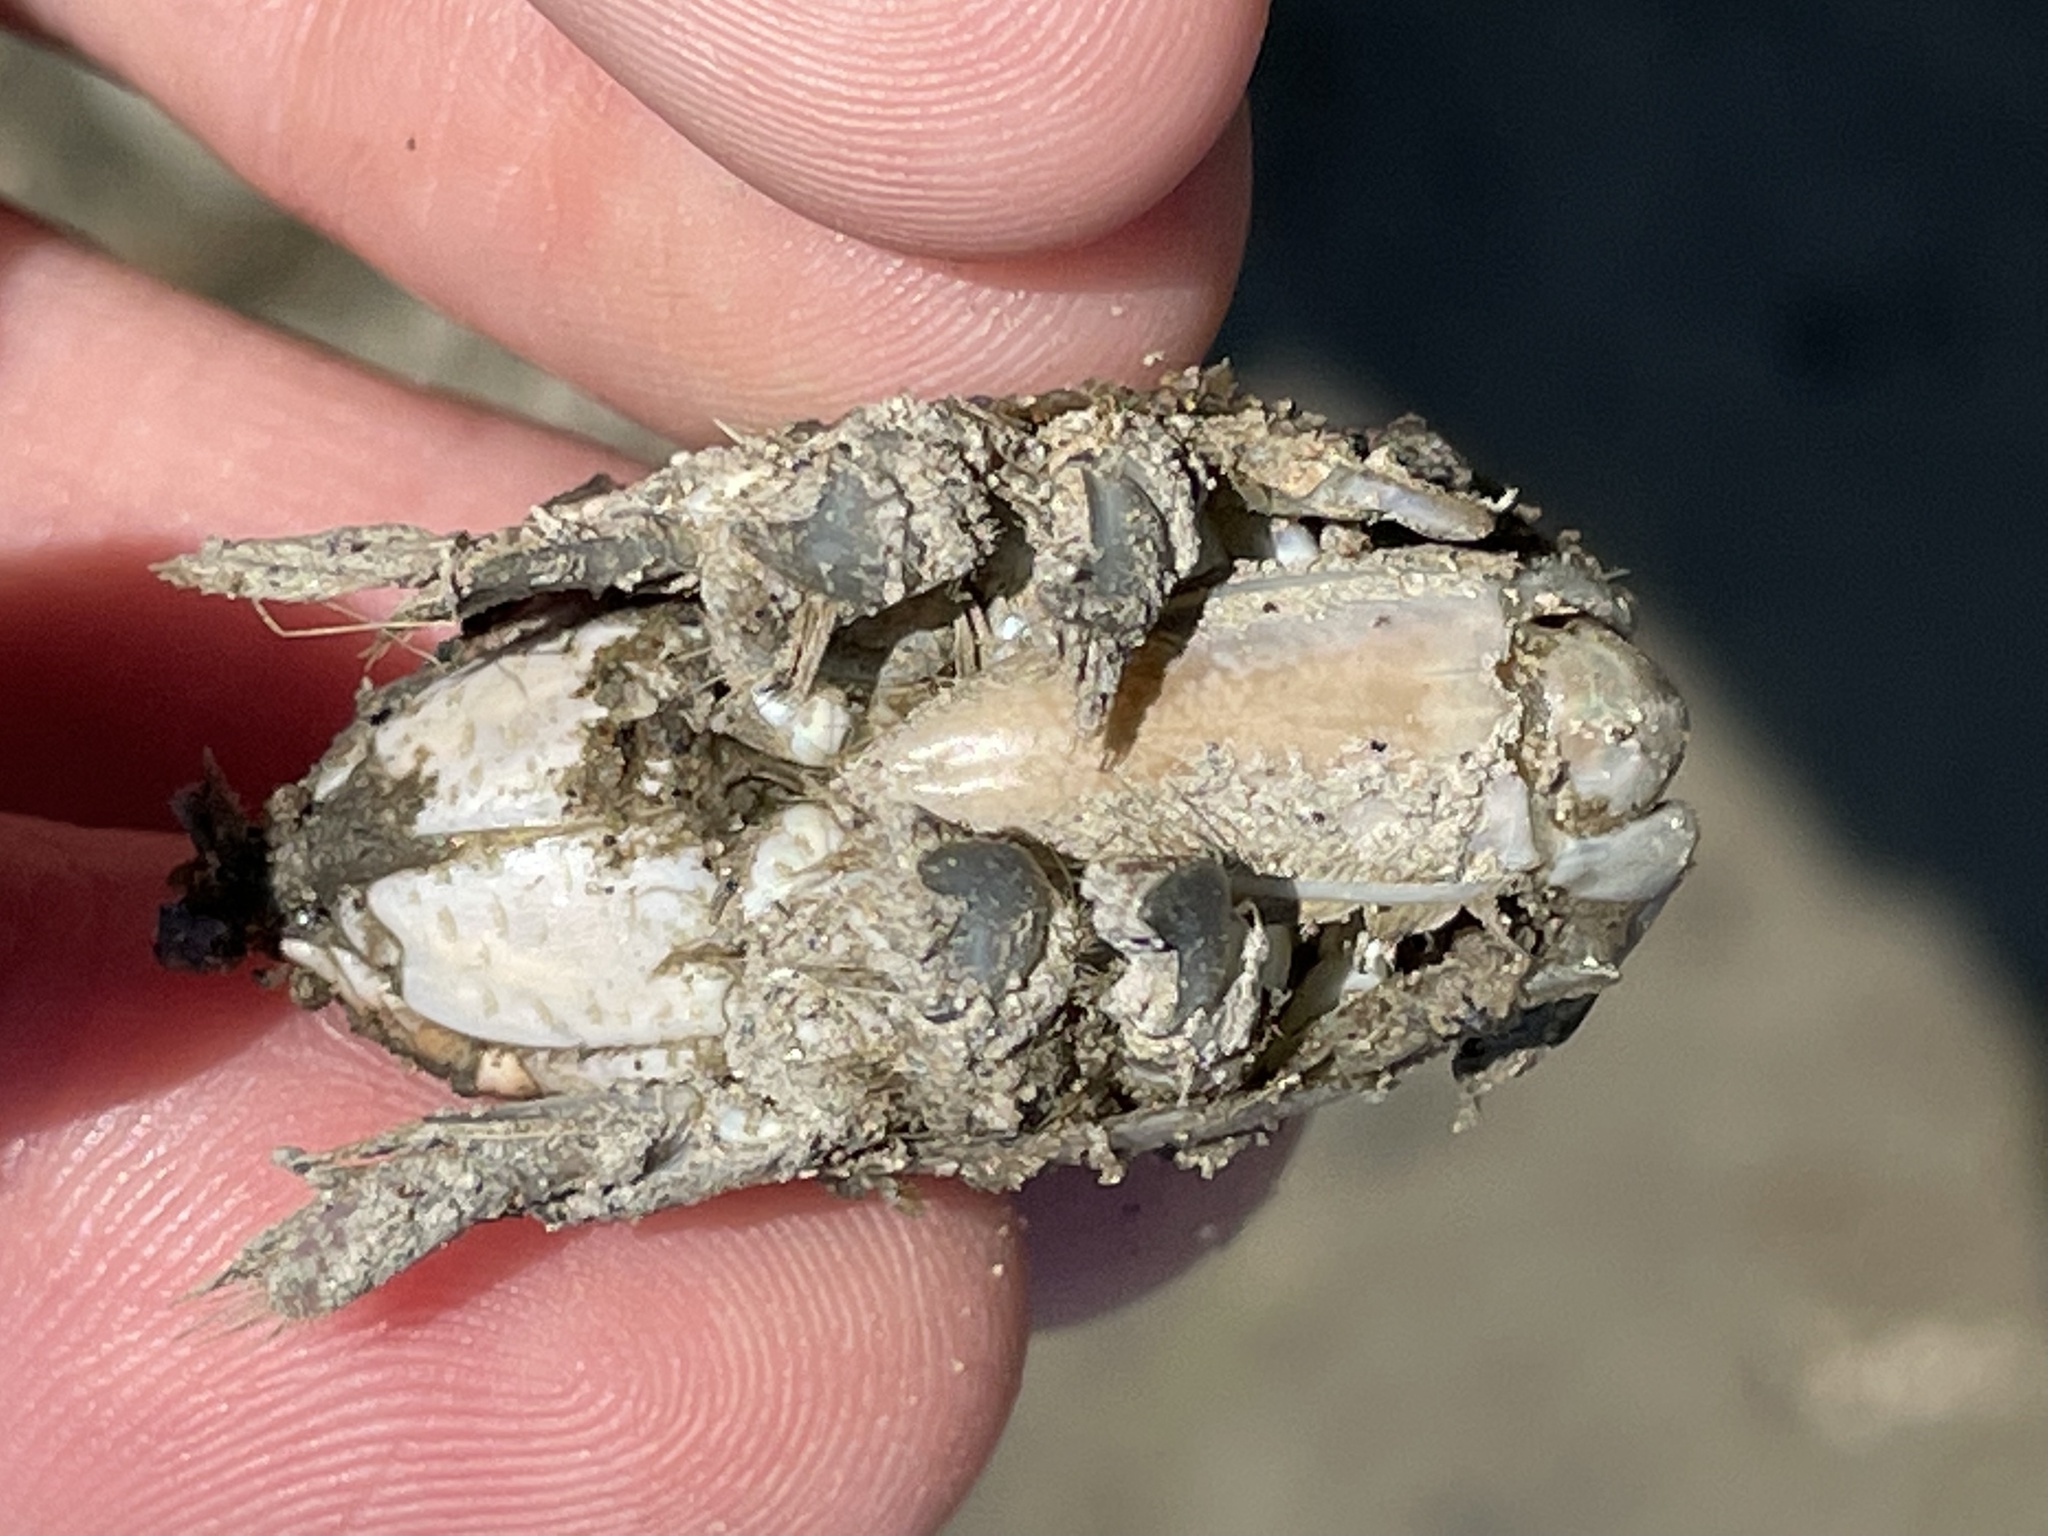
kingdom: Animalia
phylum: Arthropoda
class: Malacostraca
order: Decapoda
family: Hippidae
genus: Emerita
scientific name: Emerita talpoida
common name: Atlantic sand crab
